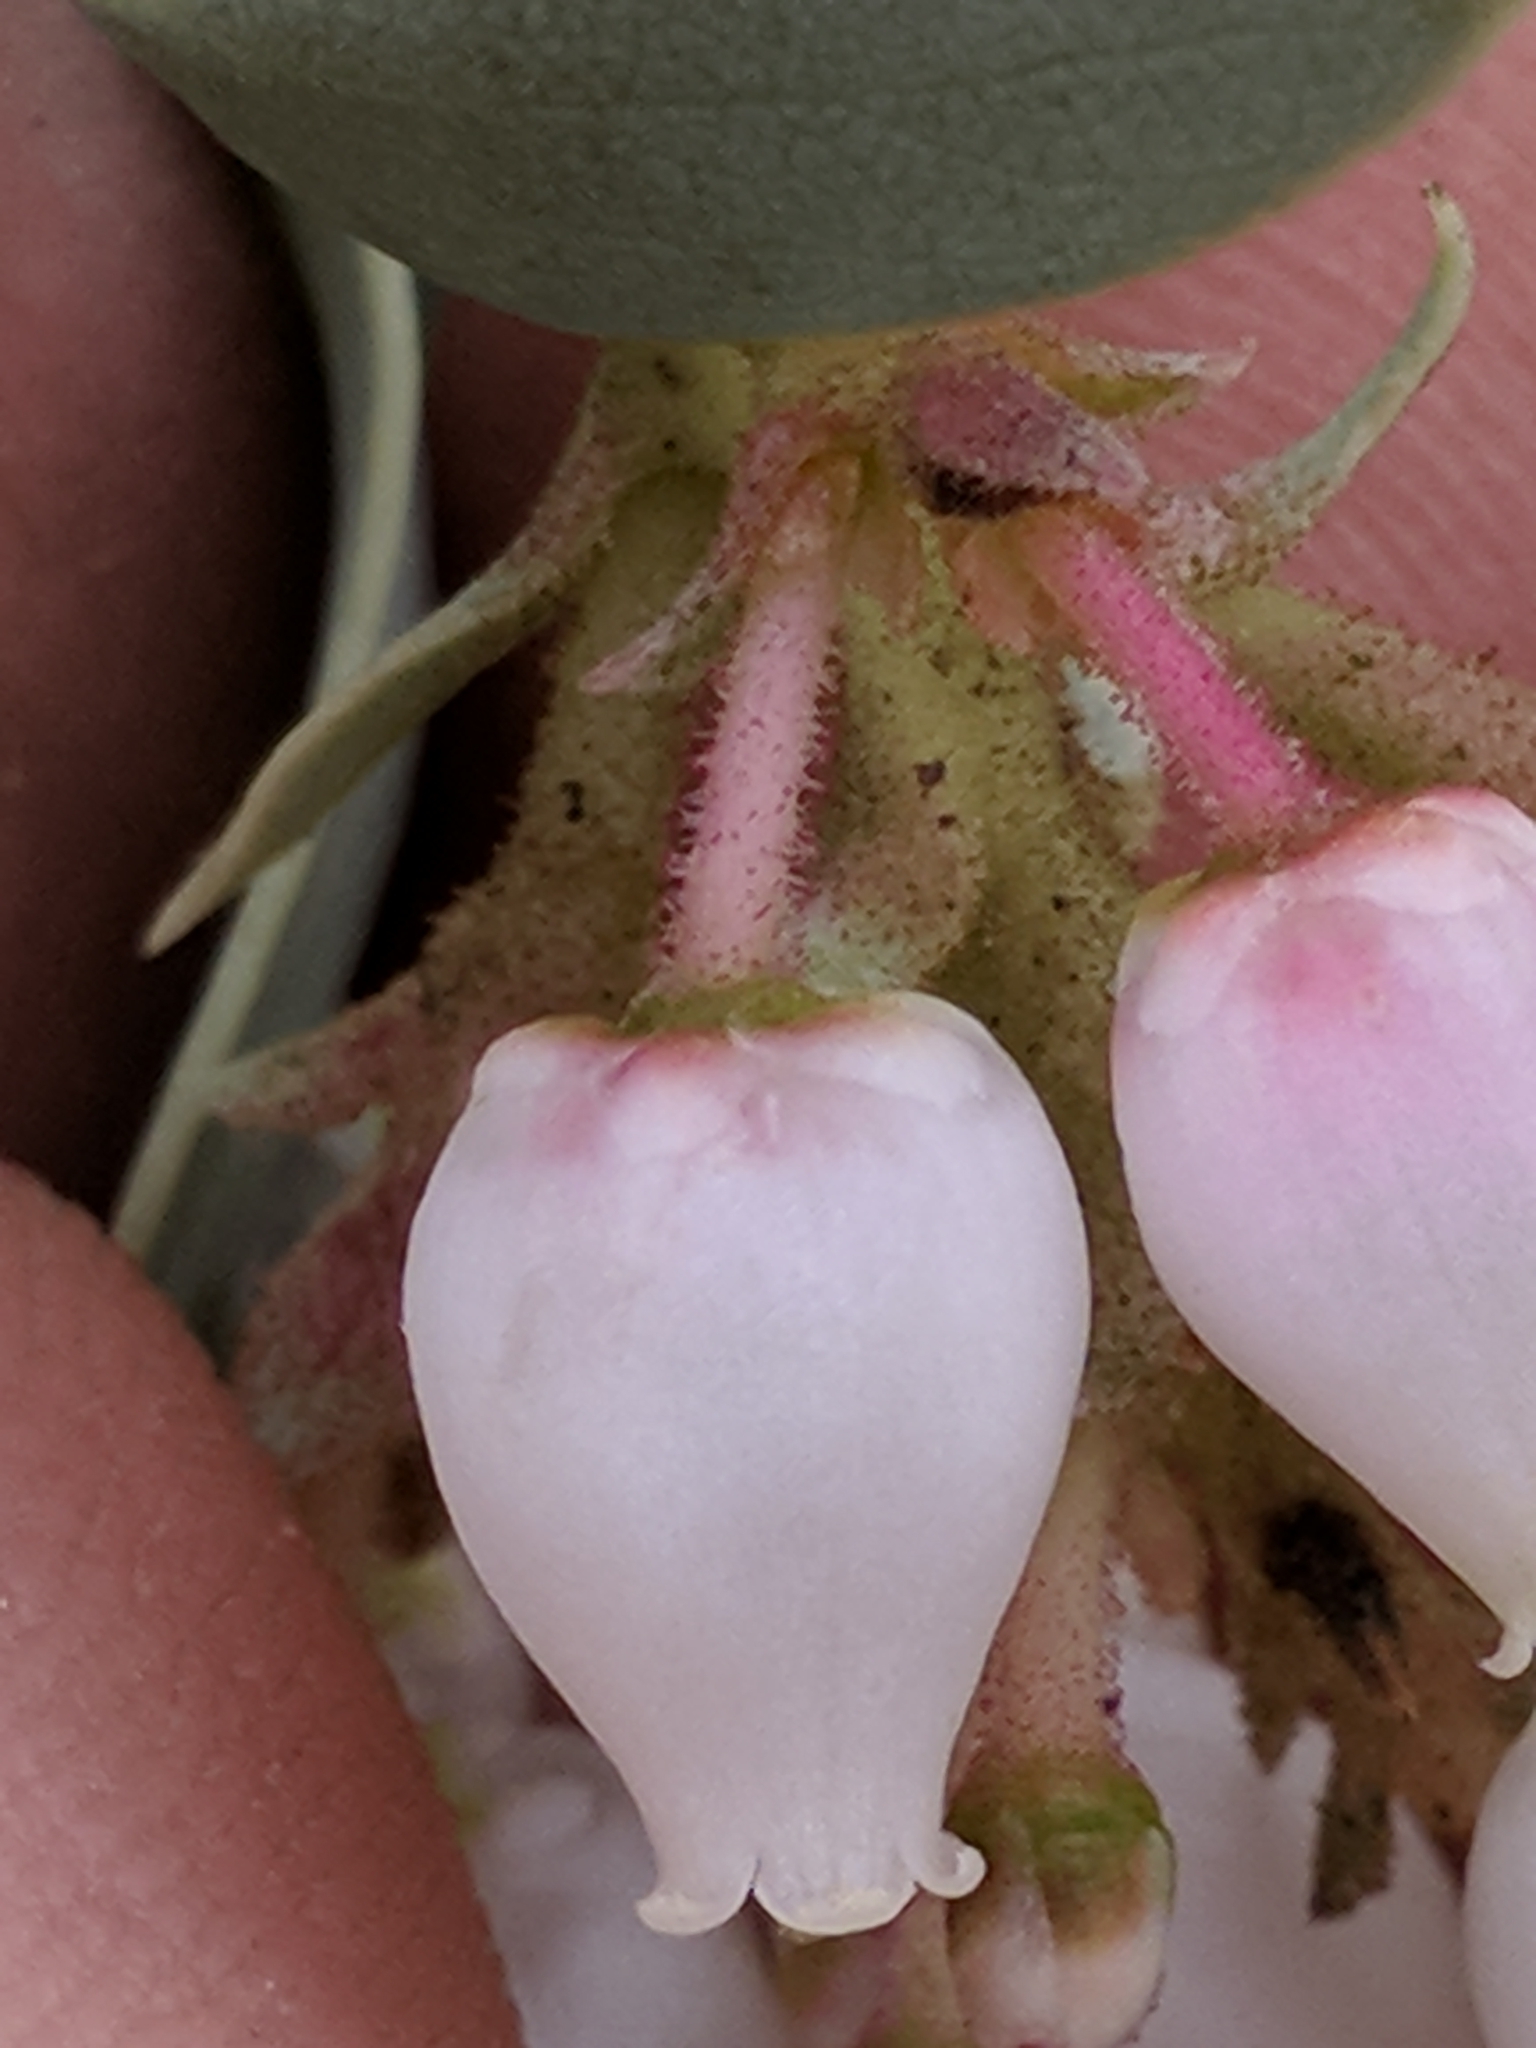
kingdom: Plantae
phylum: Tracheophyta
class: Magnoliopsida
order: Ericales
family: Ericaceae
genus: Arctostaphylos
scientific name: Arctostaphylos glauca
